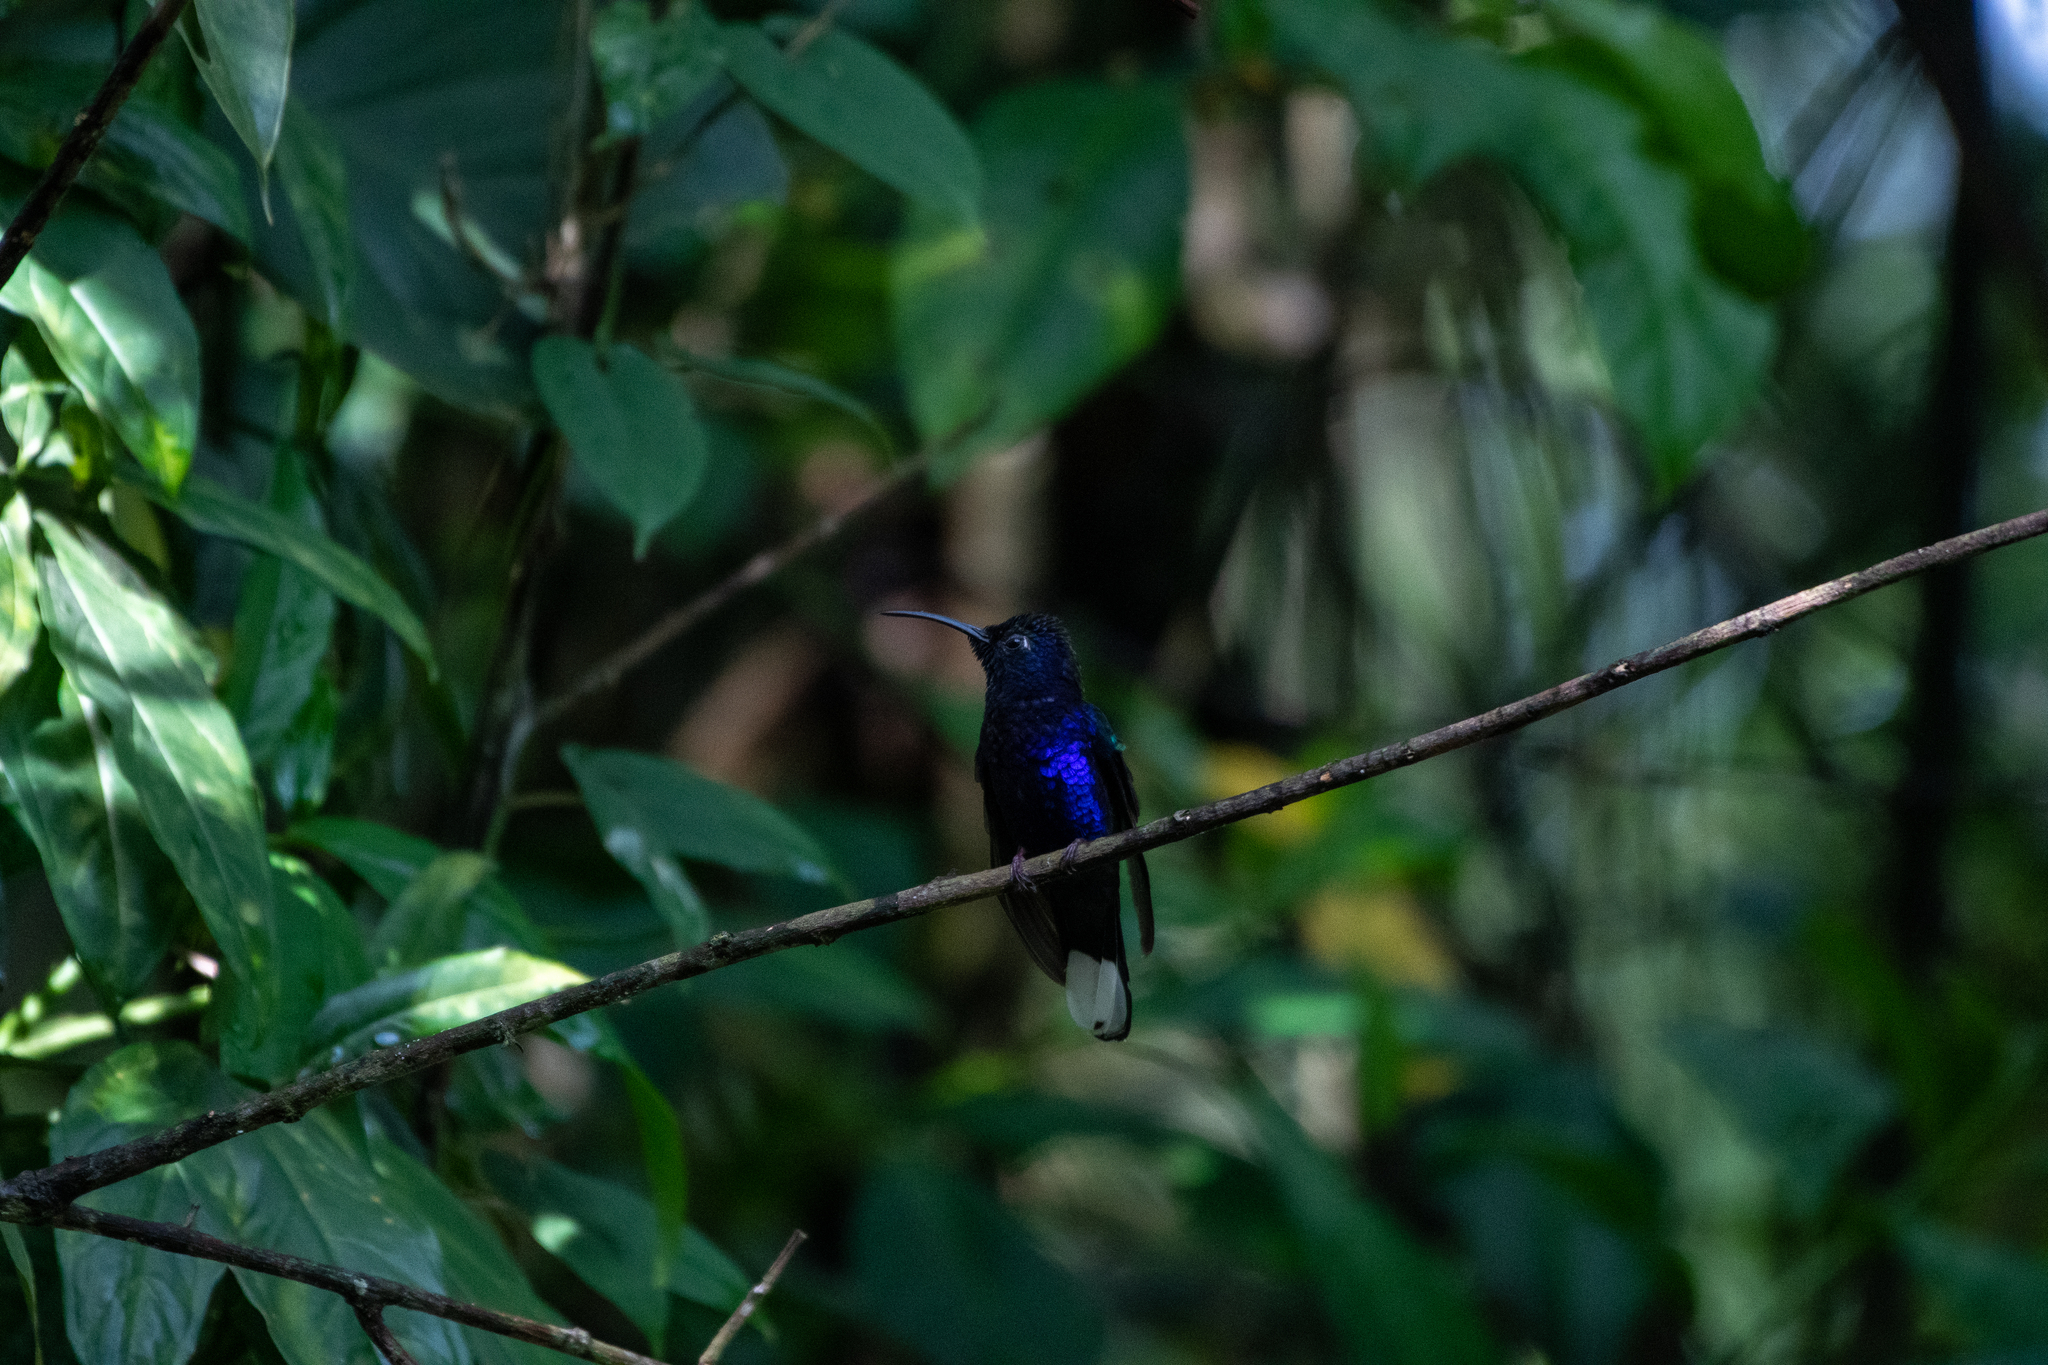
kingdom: Animalia
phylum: Chordata
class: Aves
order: Apodiformes
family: Trochilidae
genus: Campylopterus
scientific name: Campylopterus hemileucurus
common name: Violet sabrewing
